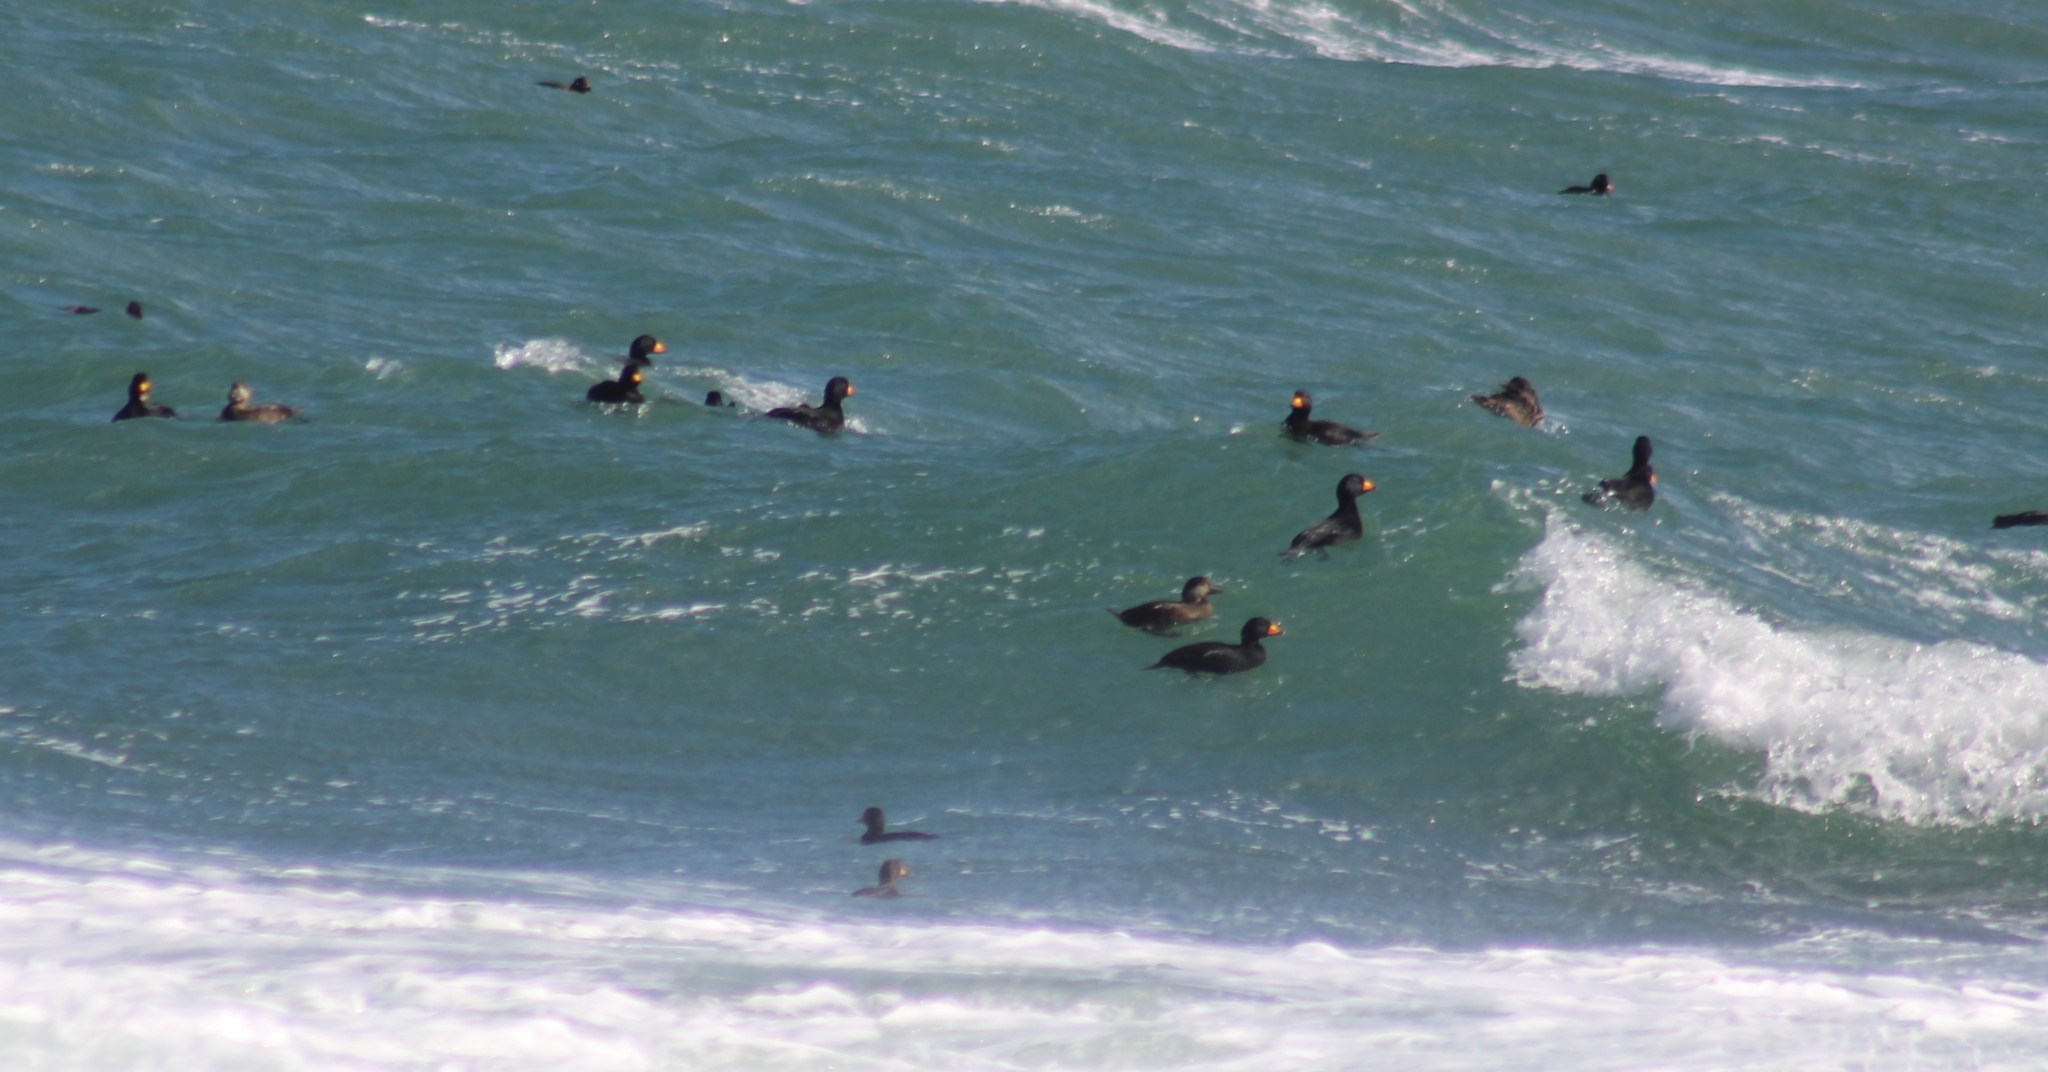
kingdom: Animalia
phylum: Chordata
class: Aves
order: Anseriformes
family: Anatidae
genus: Melanitta
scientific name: Melanitta americana
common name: Black scoter
